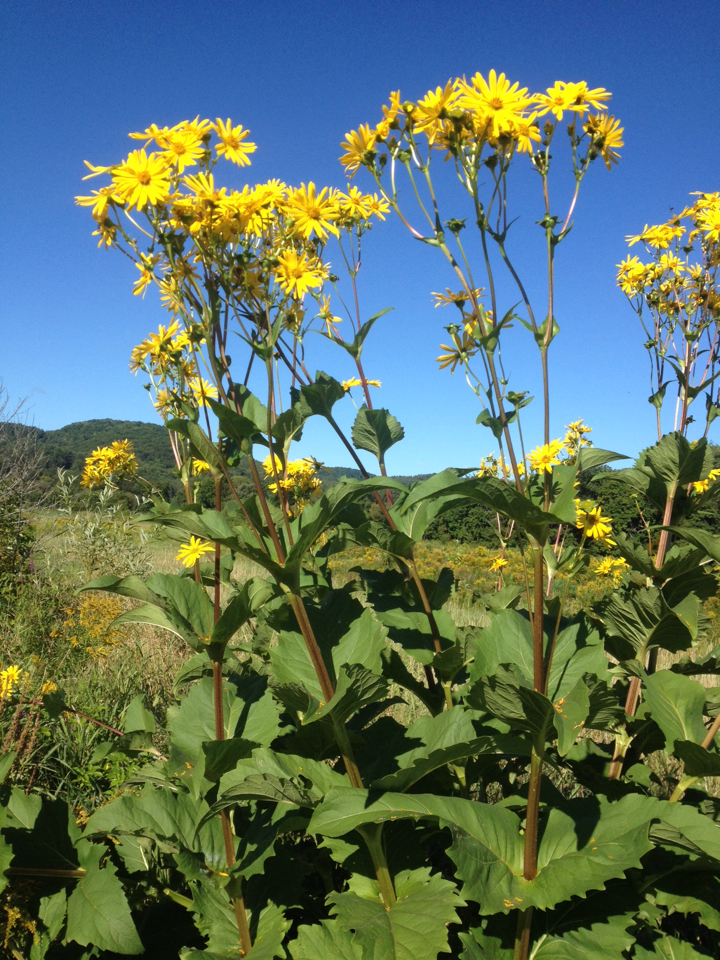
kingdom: Plantae
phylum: Tracheophyta
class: Magnoliopsida
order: Asterales
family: Asteraceae
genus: Silphium
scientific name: Silphium perfoliatum
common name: Cup-plant
